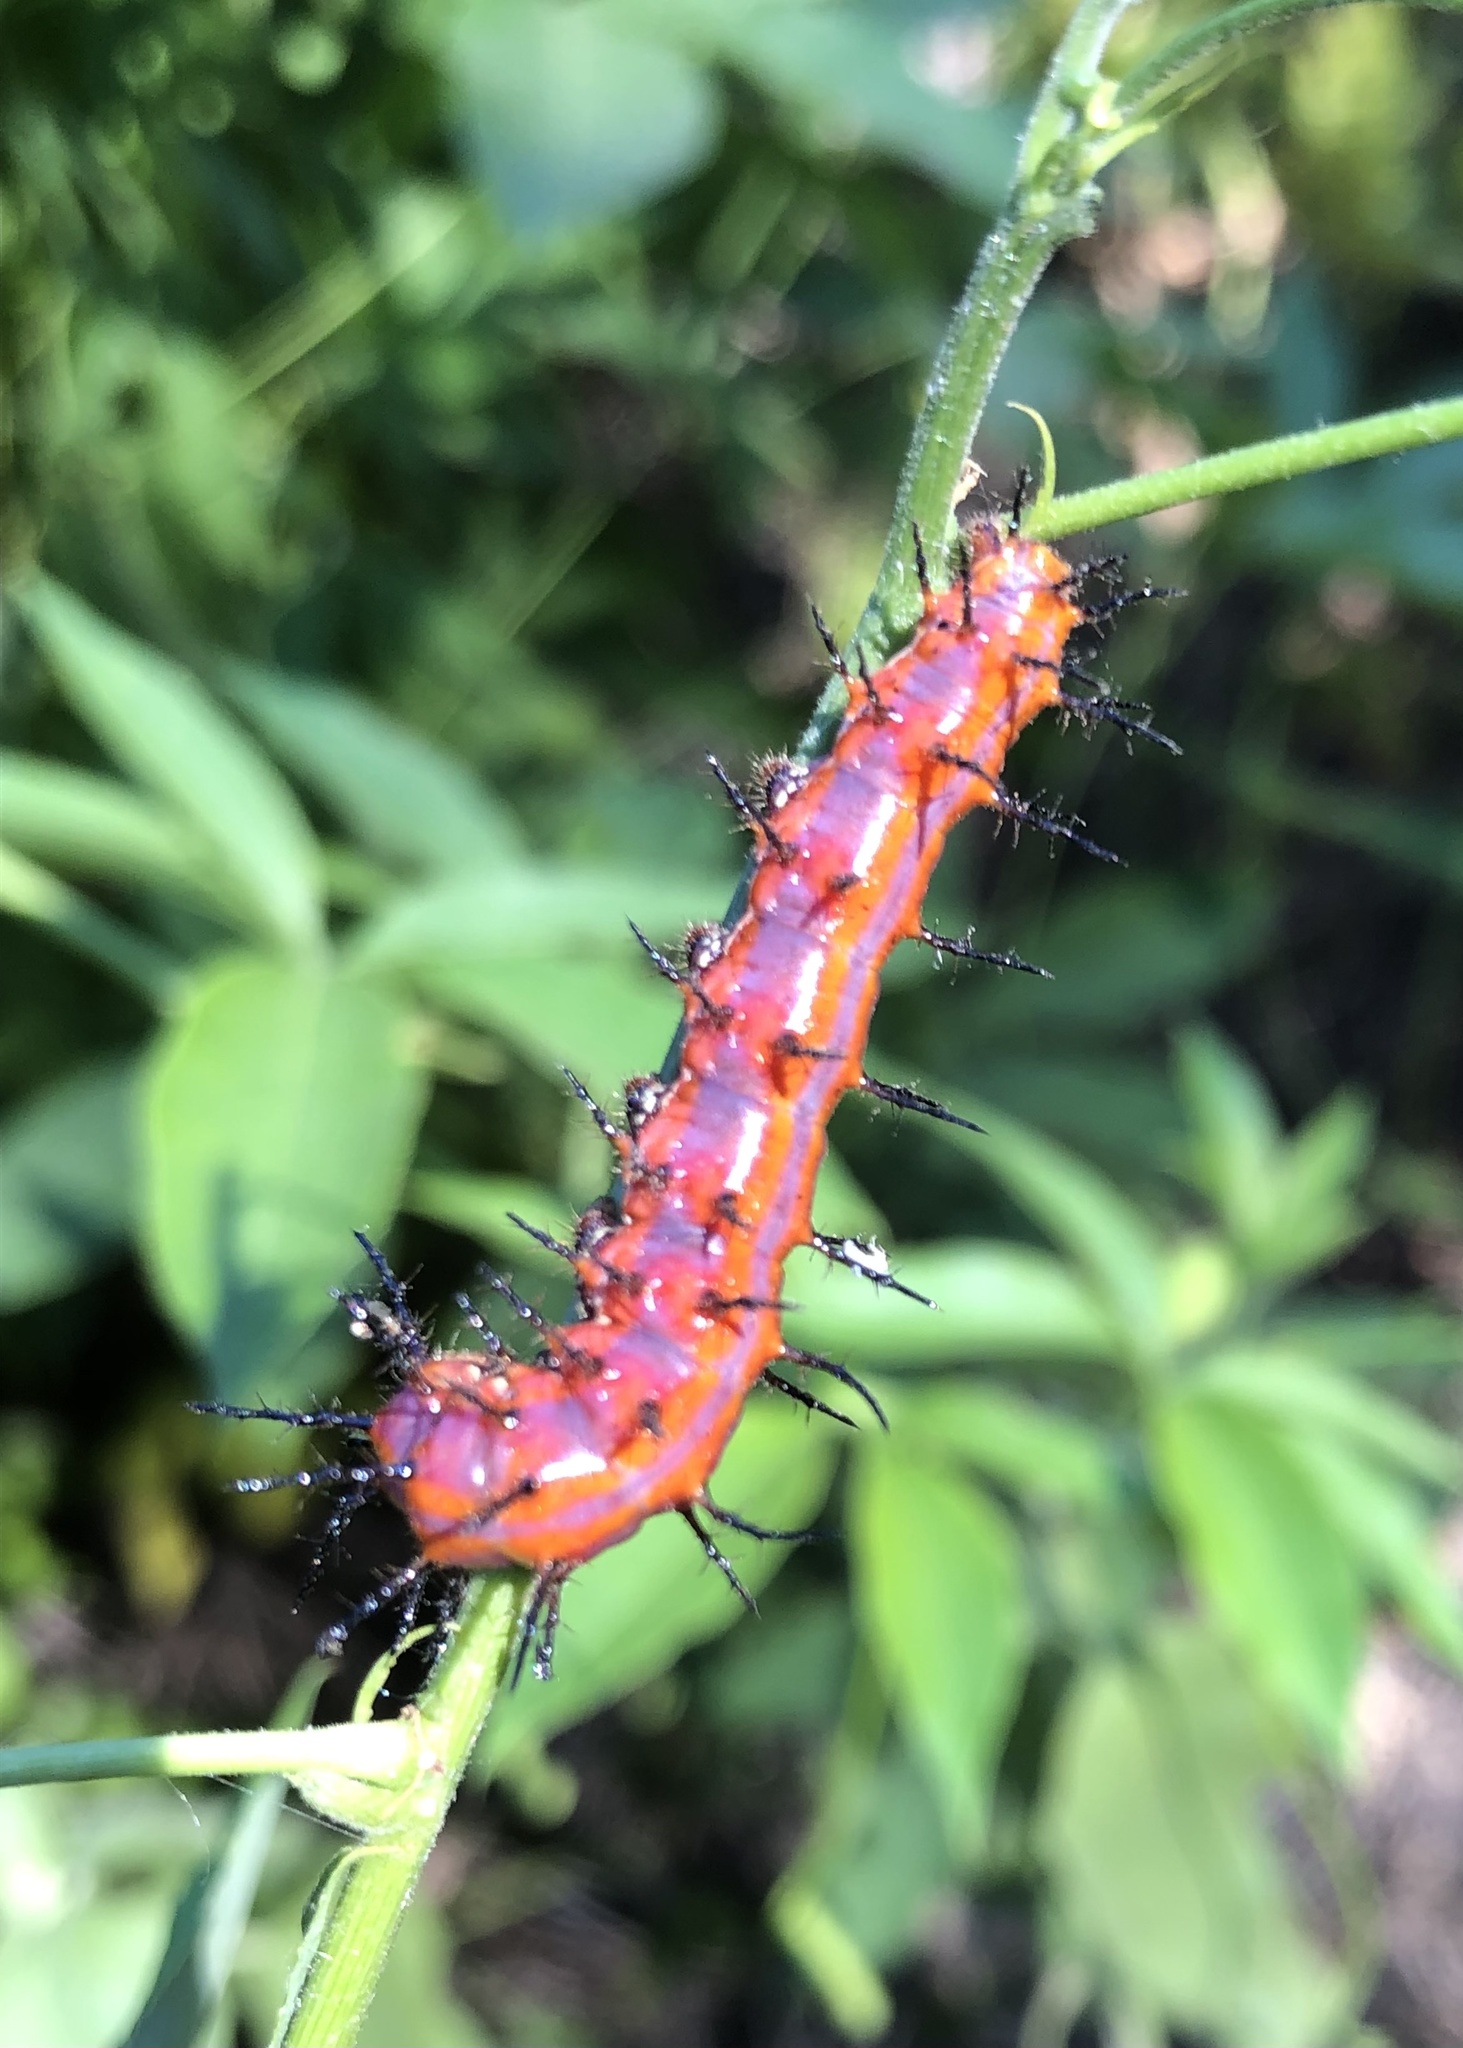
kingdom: Animalia
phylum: Arthropoda
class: Insecta
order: Lepidoptera
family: Nymphalidae
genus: Dione
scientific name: Dione vanillae
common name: Gulf fritillary
